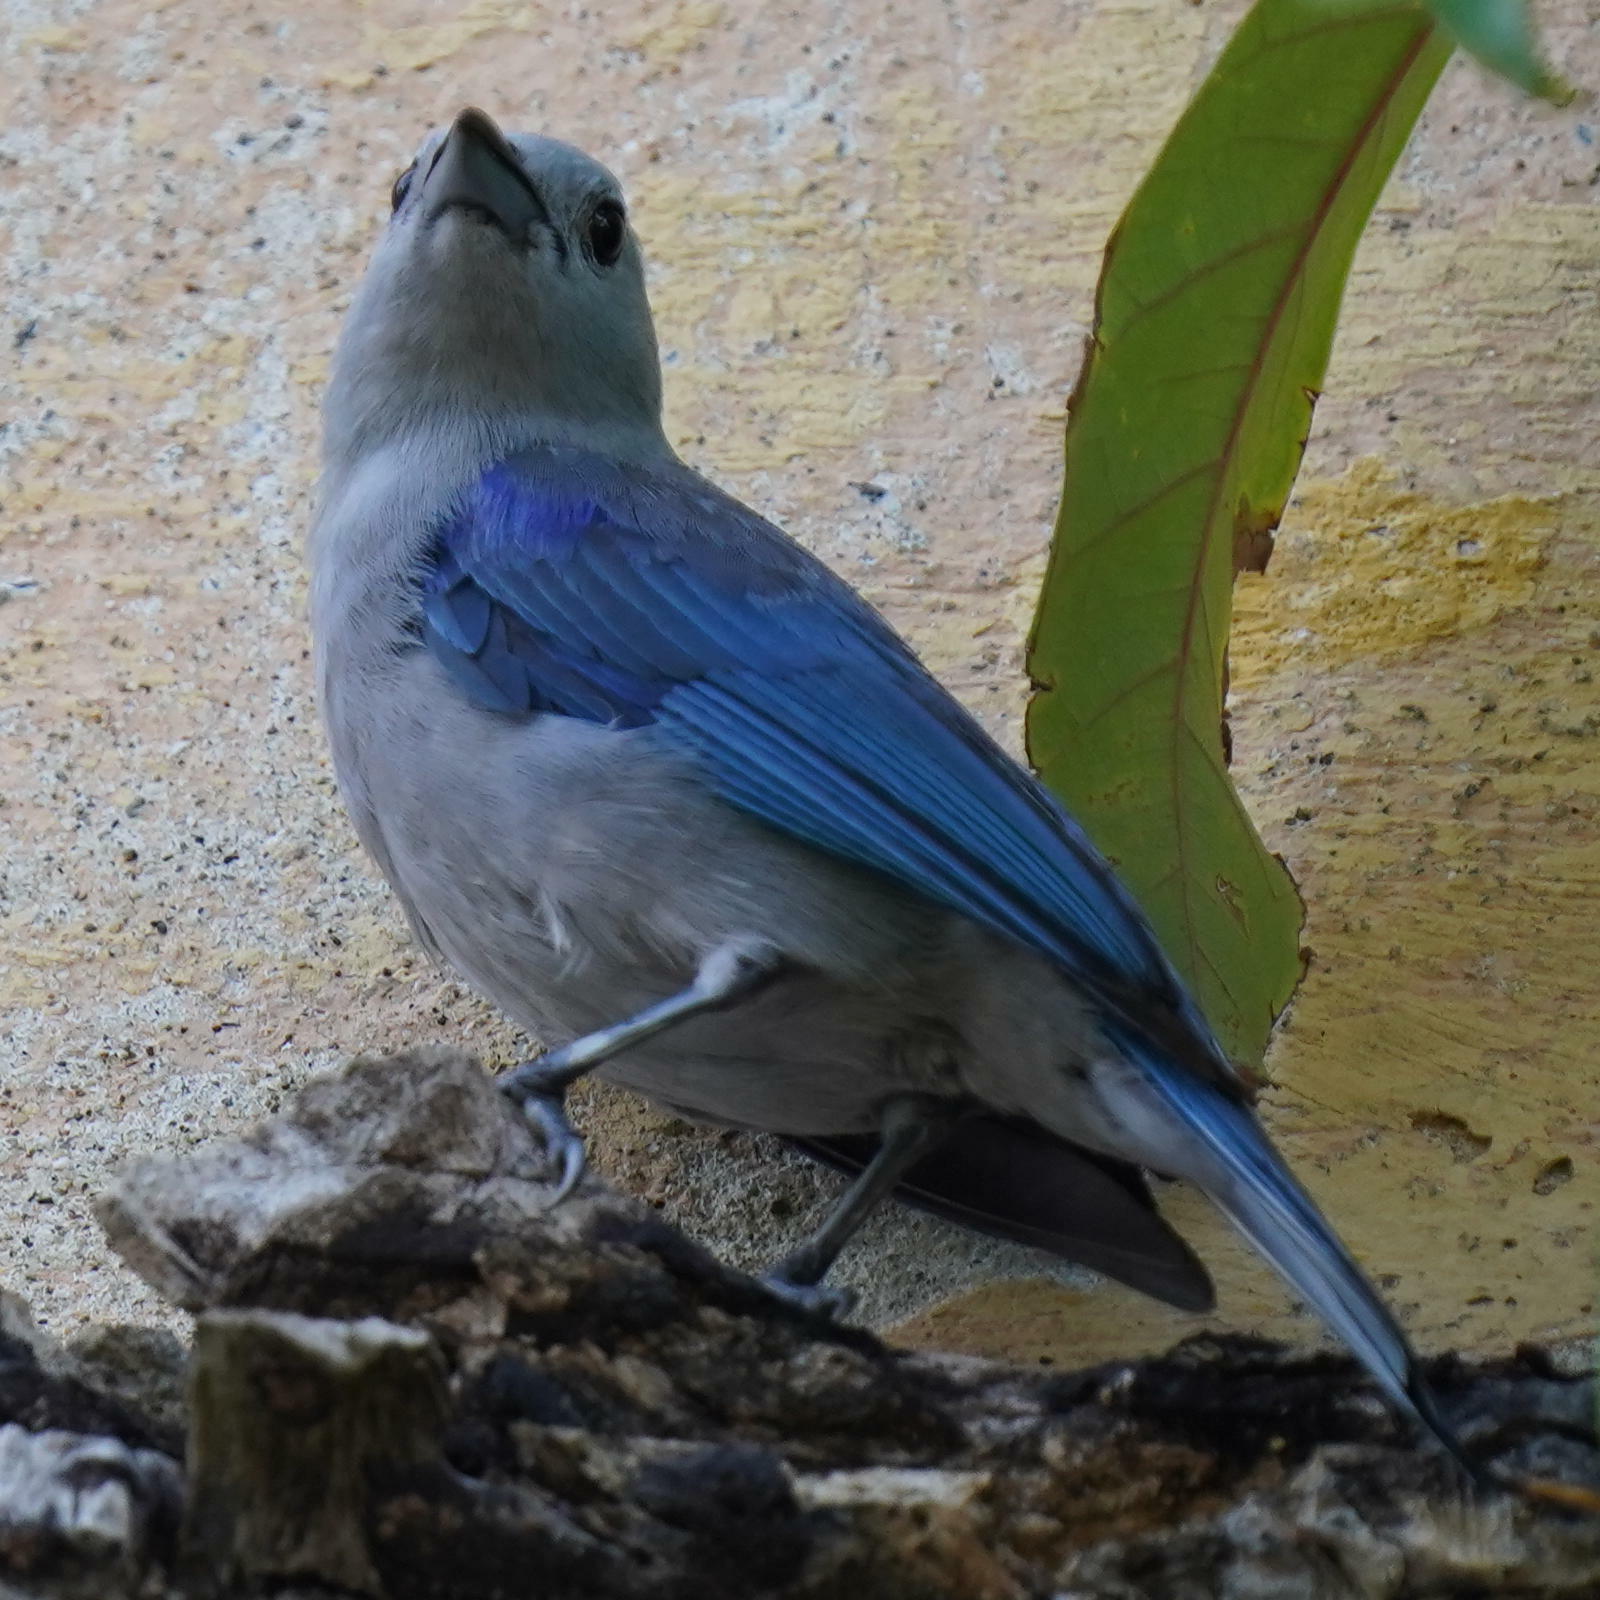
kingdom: Animalia
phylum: Chordata
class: Aves
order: Passeriformes
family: Thraupidae
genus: Thraupis
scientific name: Thraupis episcopus
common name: Blue-grey tanager
